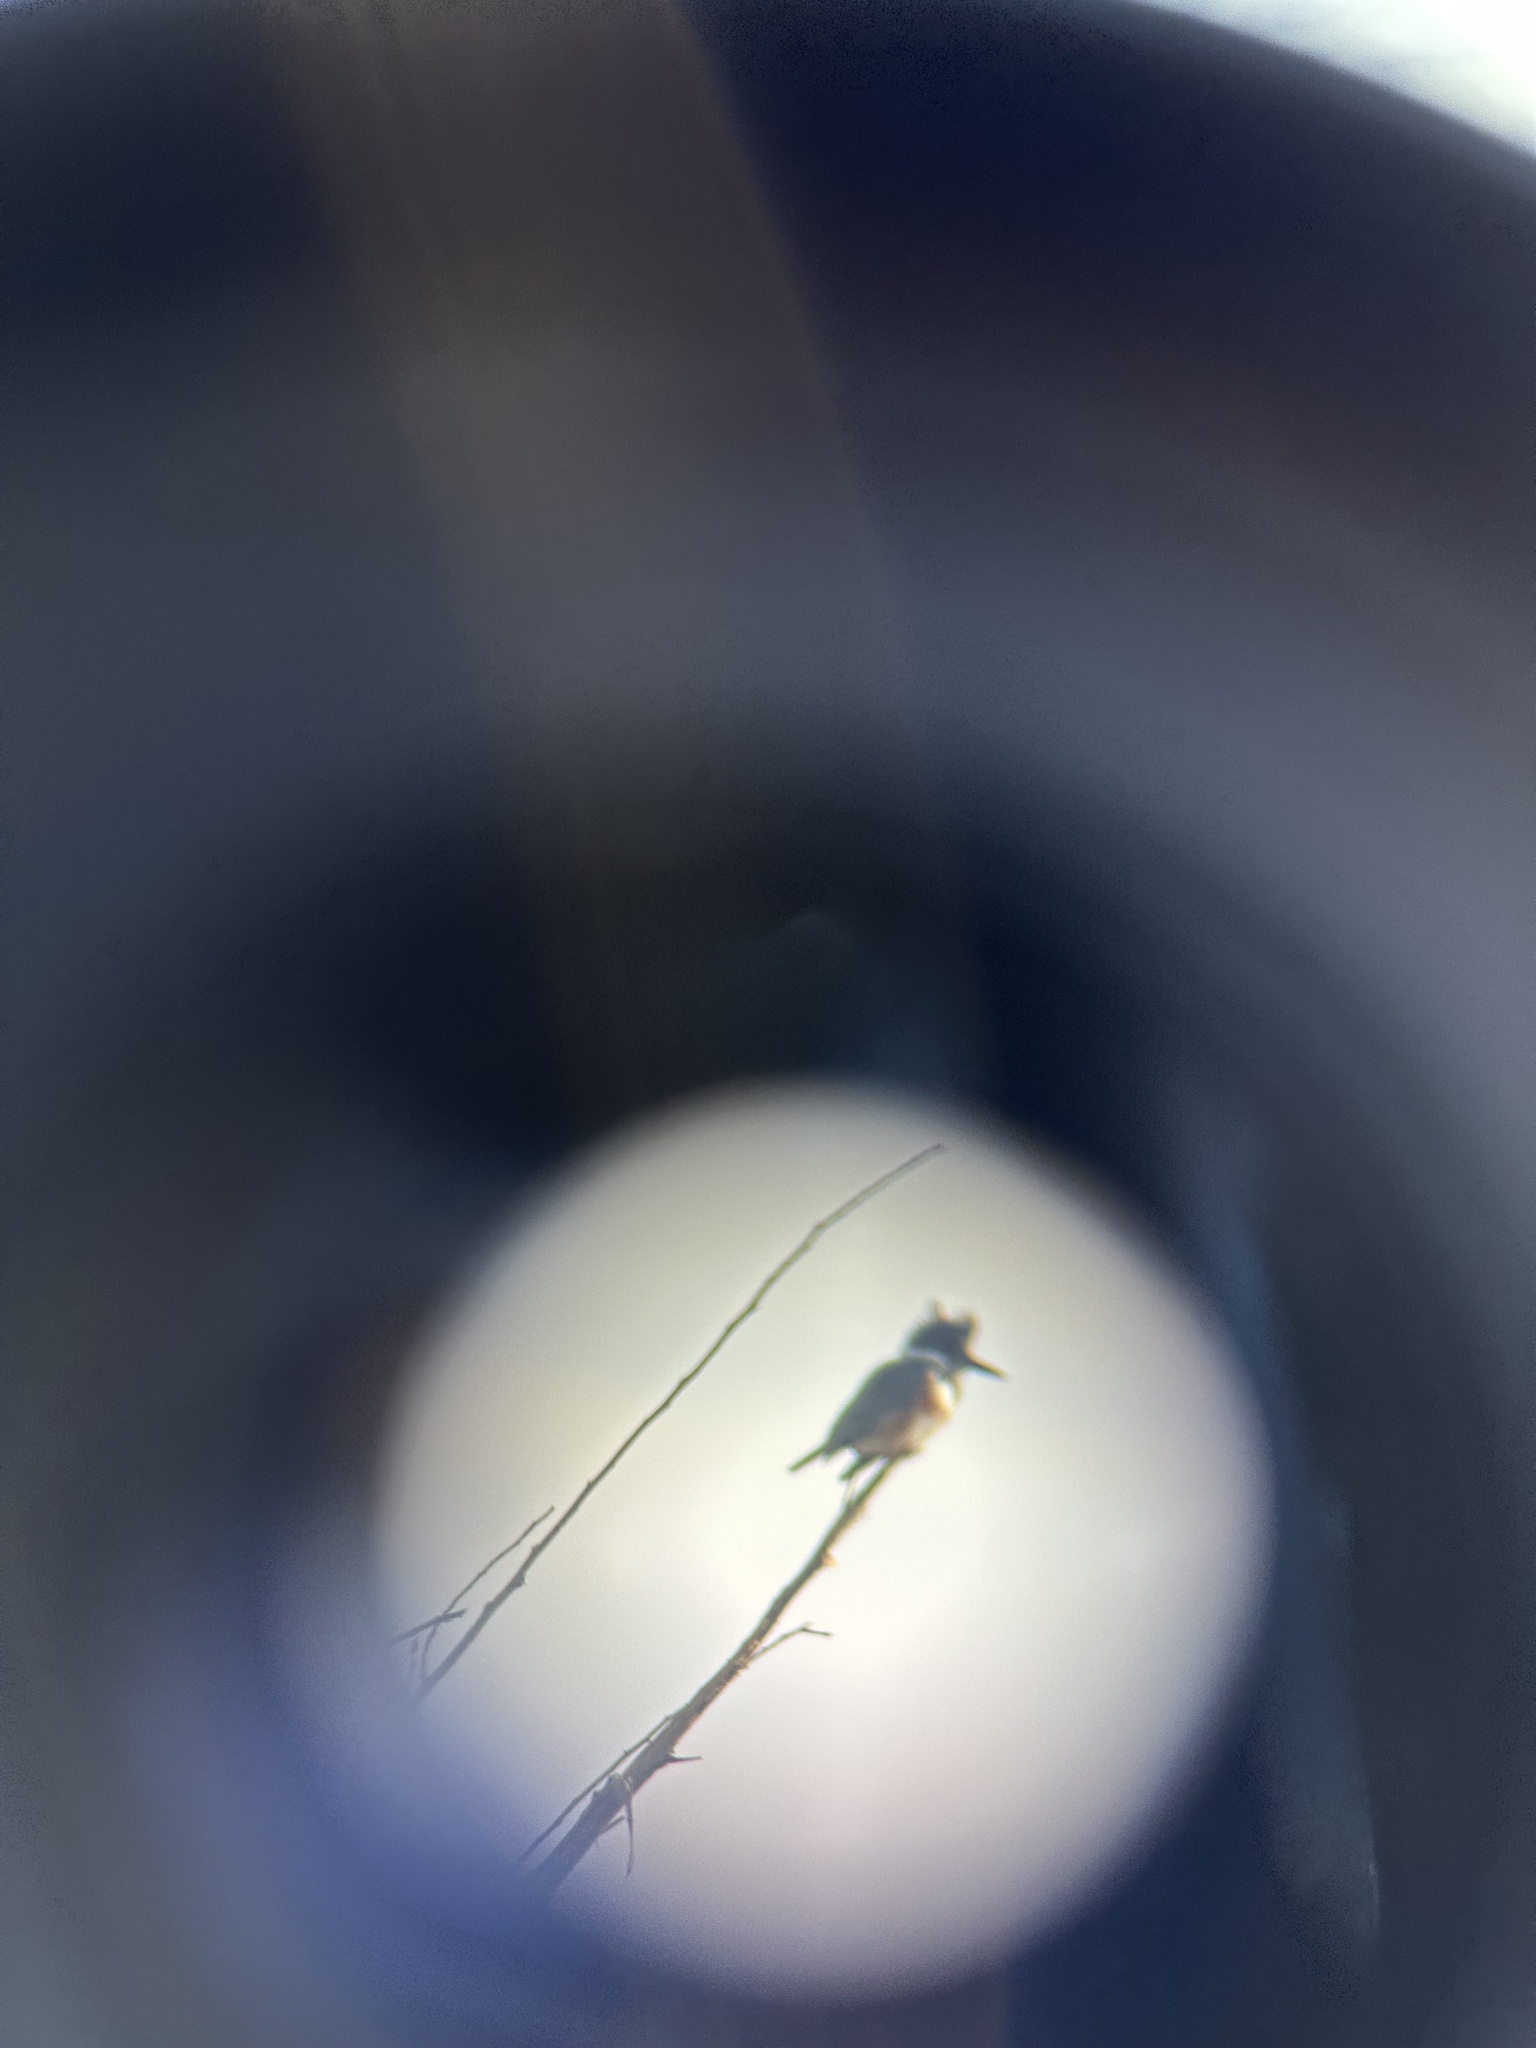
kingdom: Animalia
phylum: Chordata
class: Aves
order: Coraciiformes
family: Alcedinidae
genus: Megaceryle
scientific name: Megaceryle alcyon
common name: Belted kingfisher
